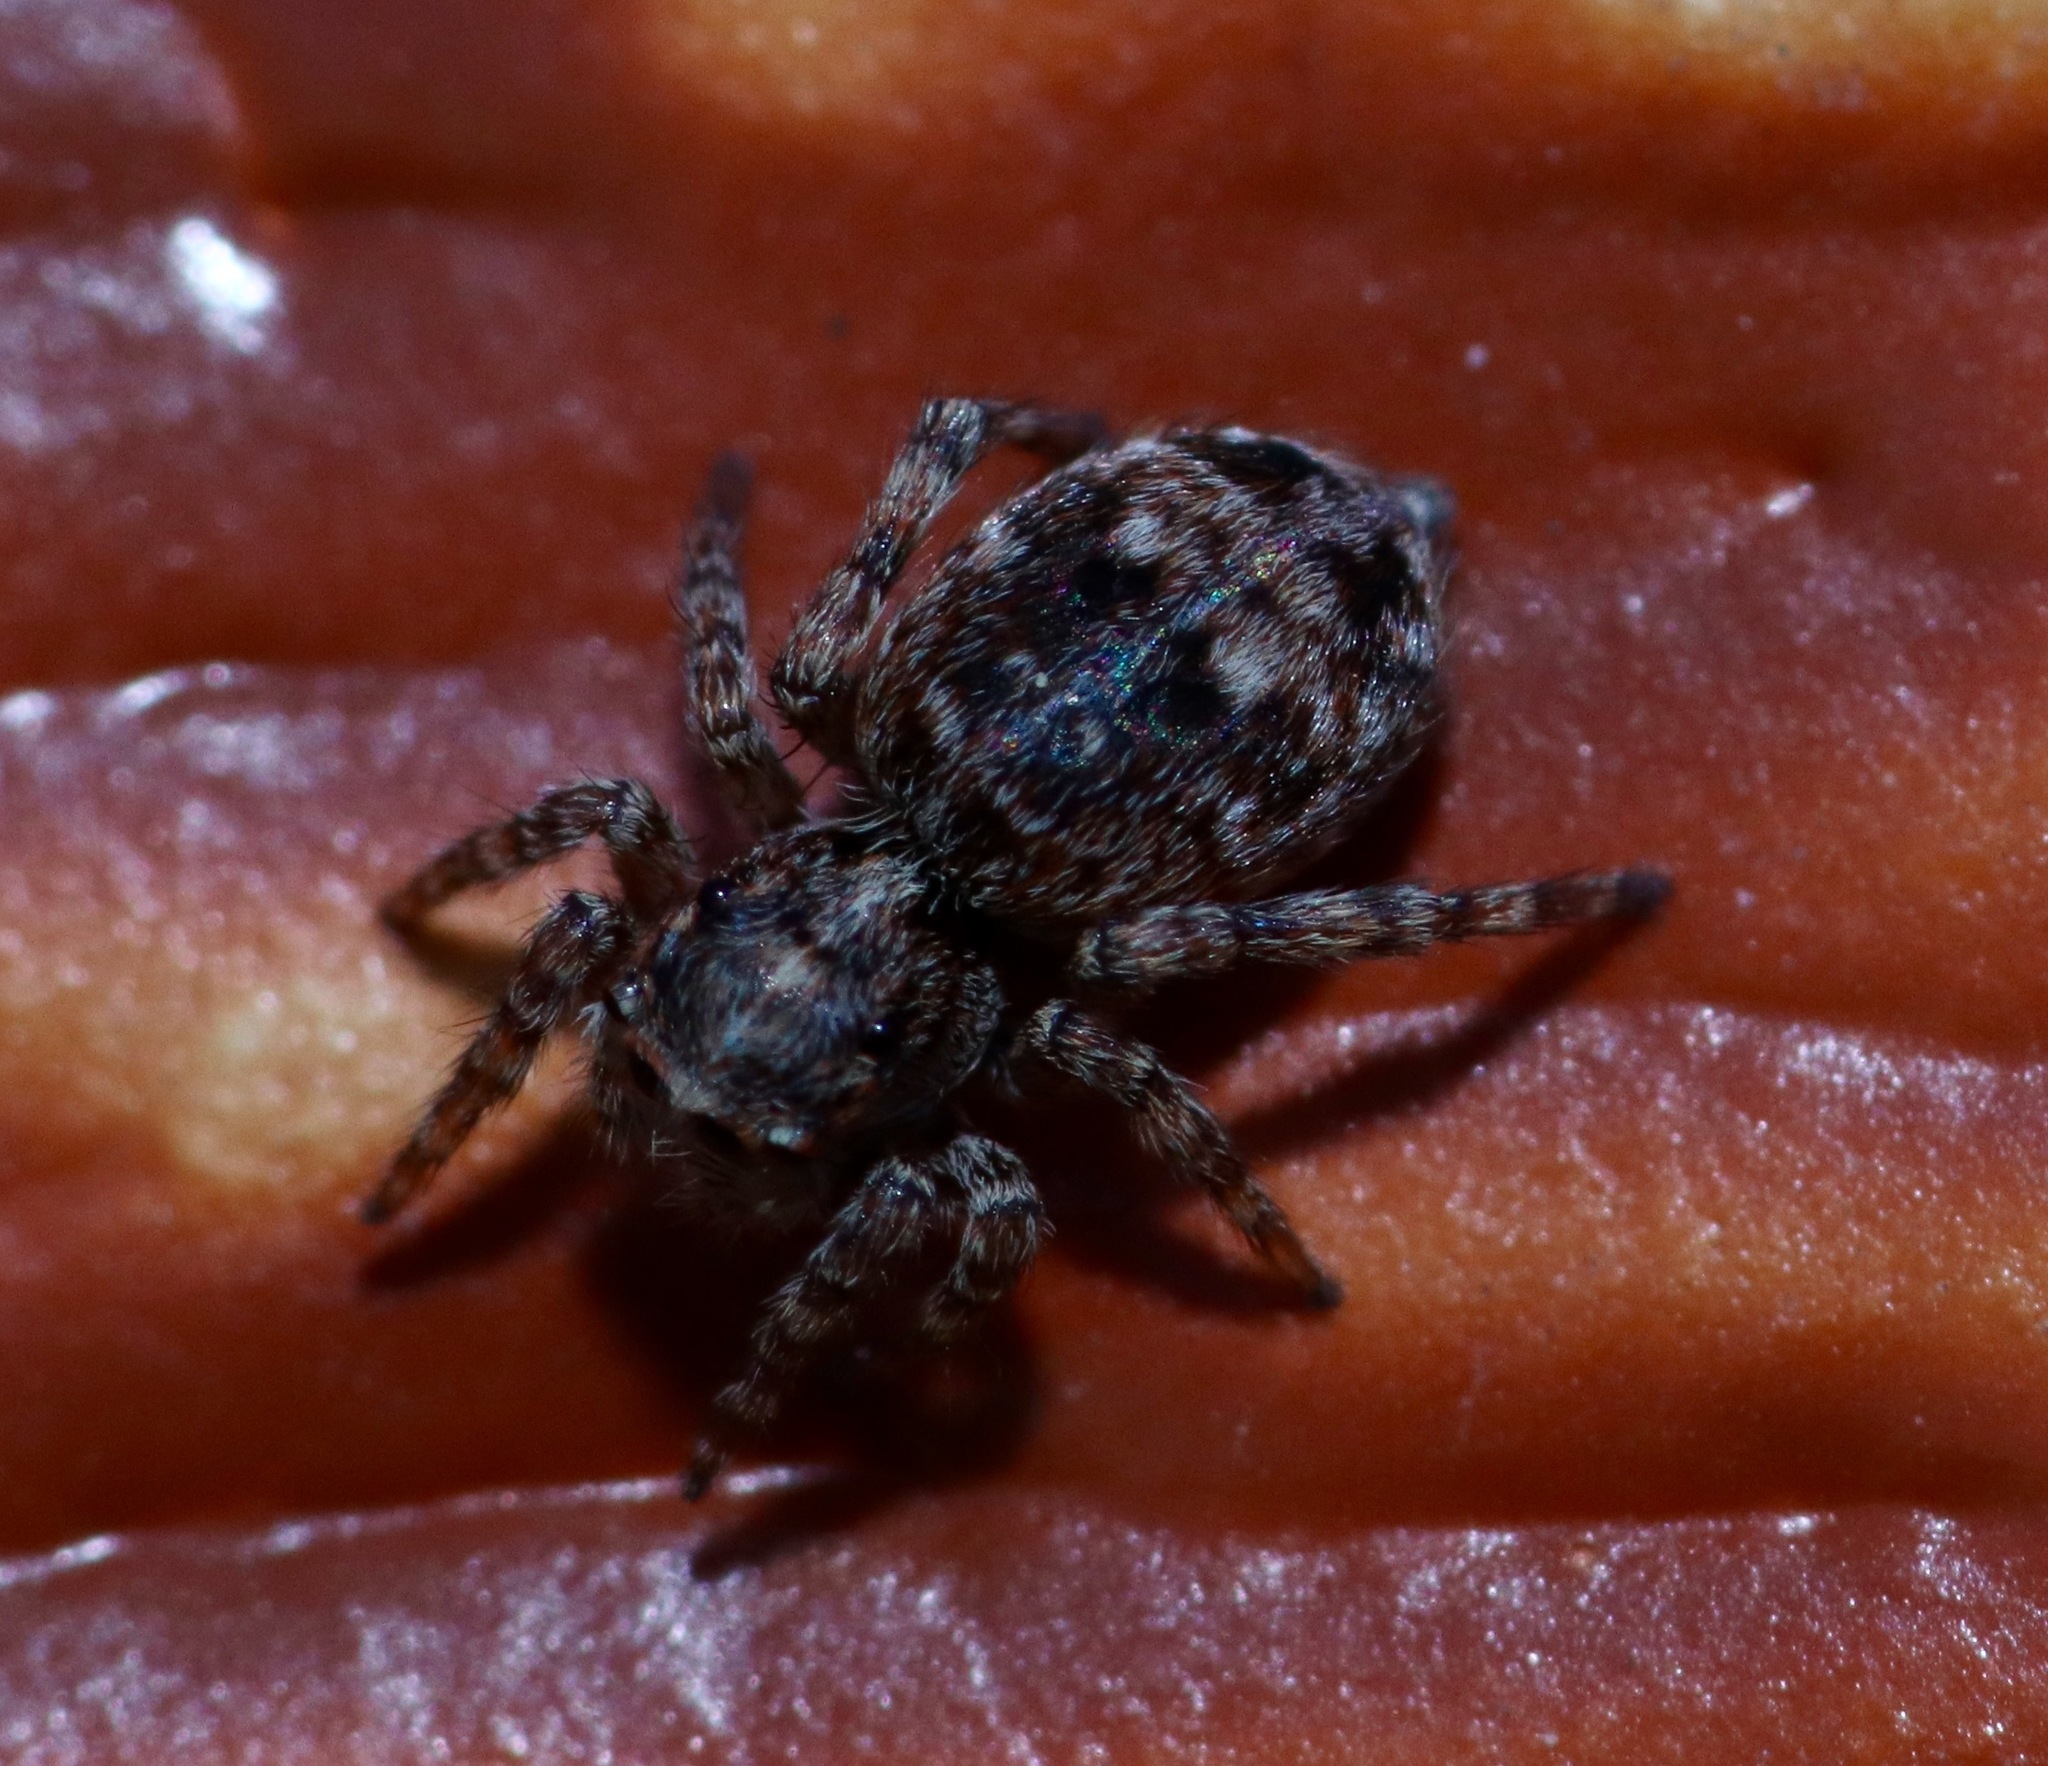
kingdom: Animalia
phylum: Arthropoda
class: Arachnida
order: Araneae
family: Salticidae
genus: Attulus
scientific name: Attulus fasciger
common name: Asiatic wall jumping spider
